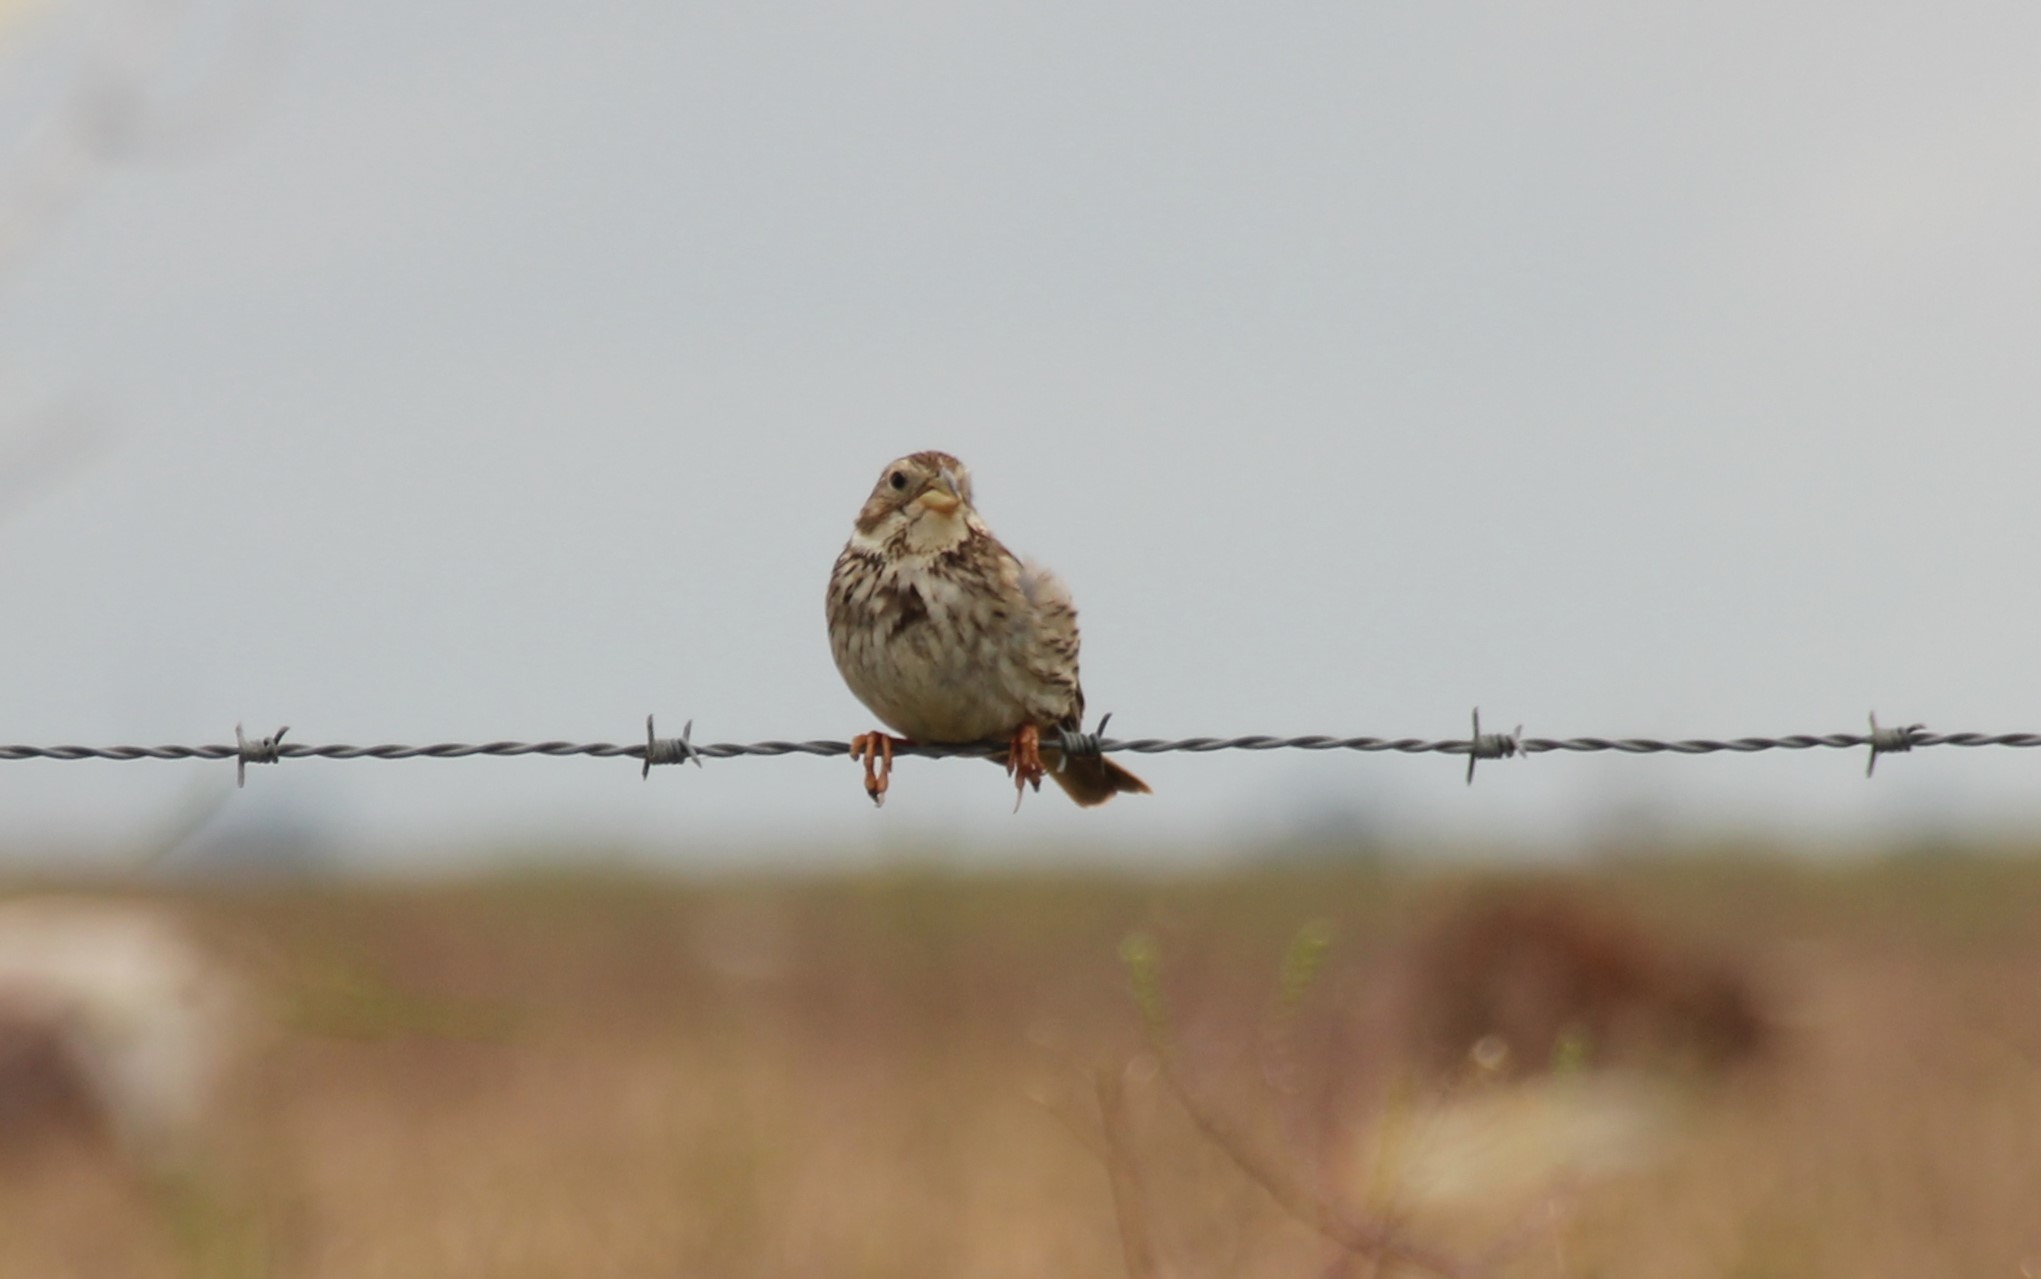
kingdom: Animalia
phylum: Chordata
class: Aves
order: Passeriformes
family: Emberizidae
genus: Emberiza
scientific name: Emberiza calandra
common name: Corn bunting
